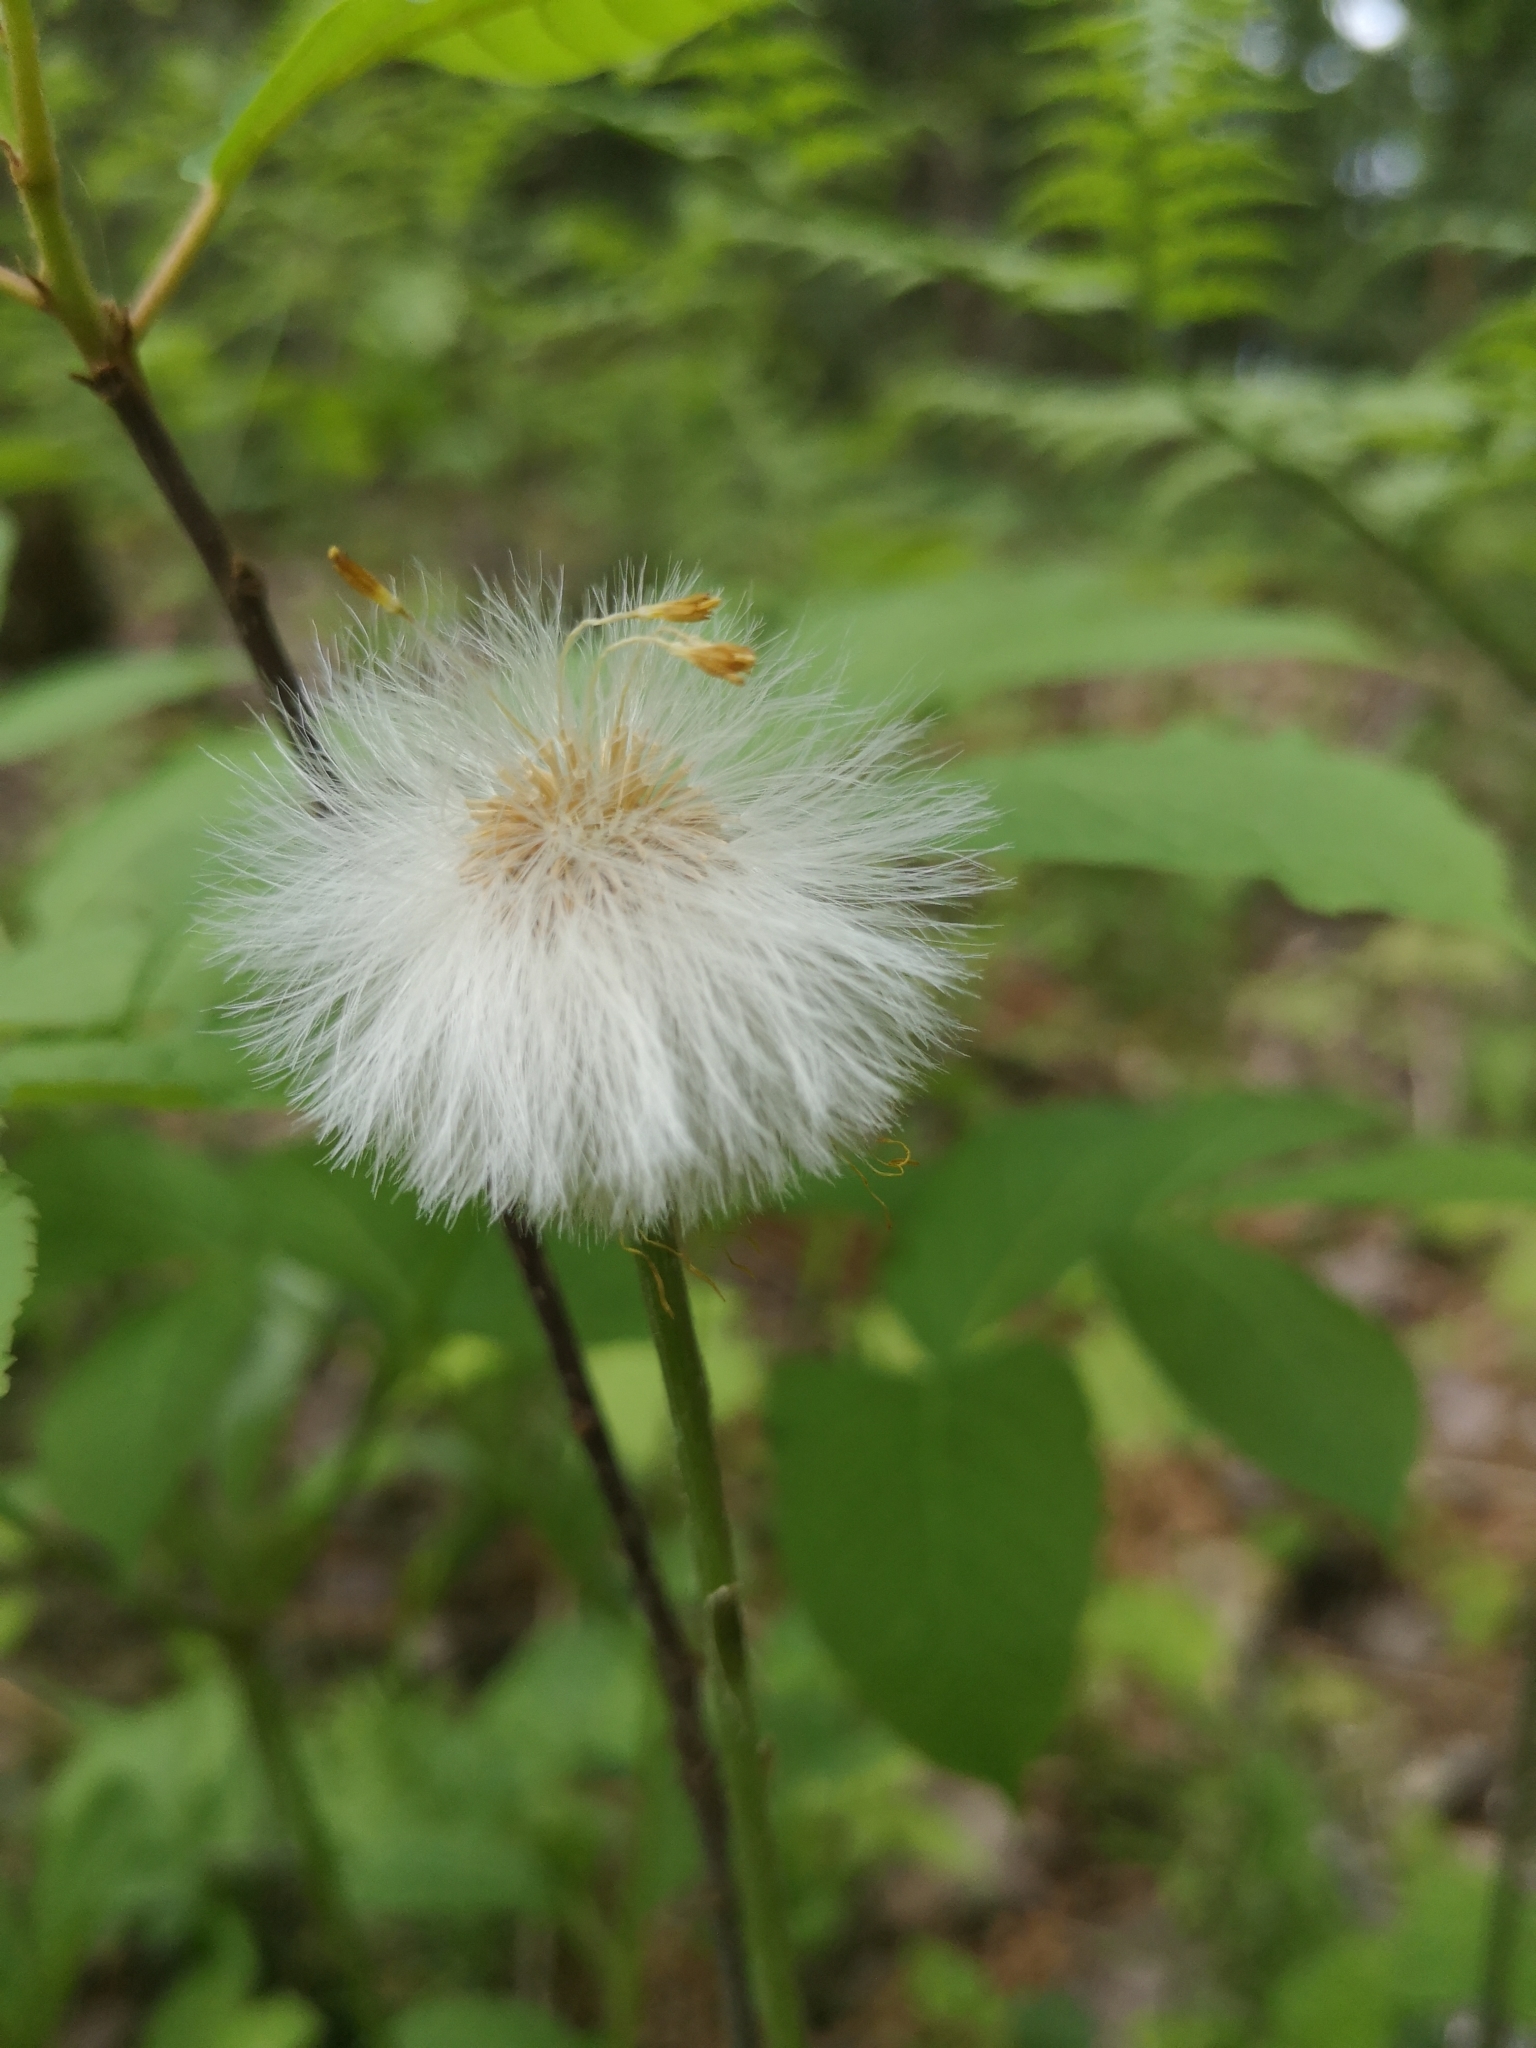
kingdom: Plantae
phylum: Tracheophyta
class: Magnoliopsida
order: Asterales
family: Asteraceae
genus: Tussilago
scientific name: Tussilago farfara
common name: Coltsfoot
